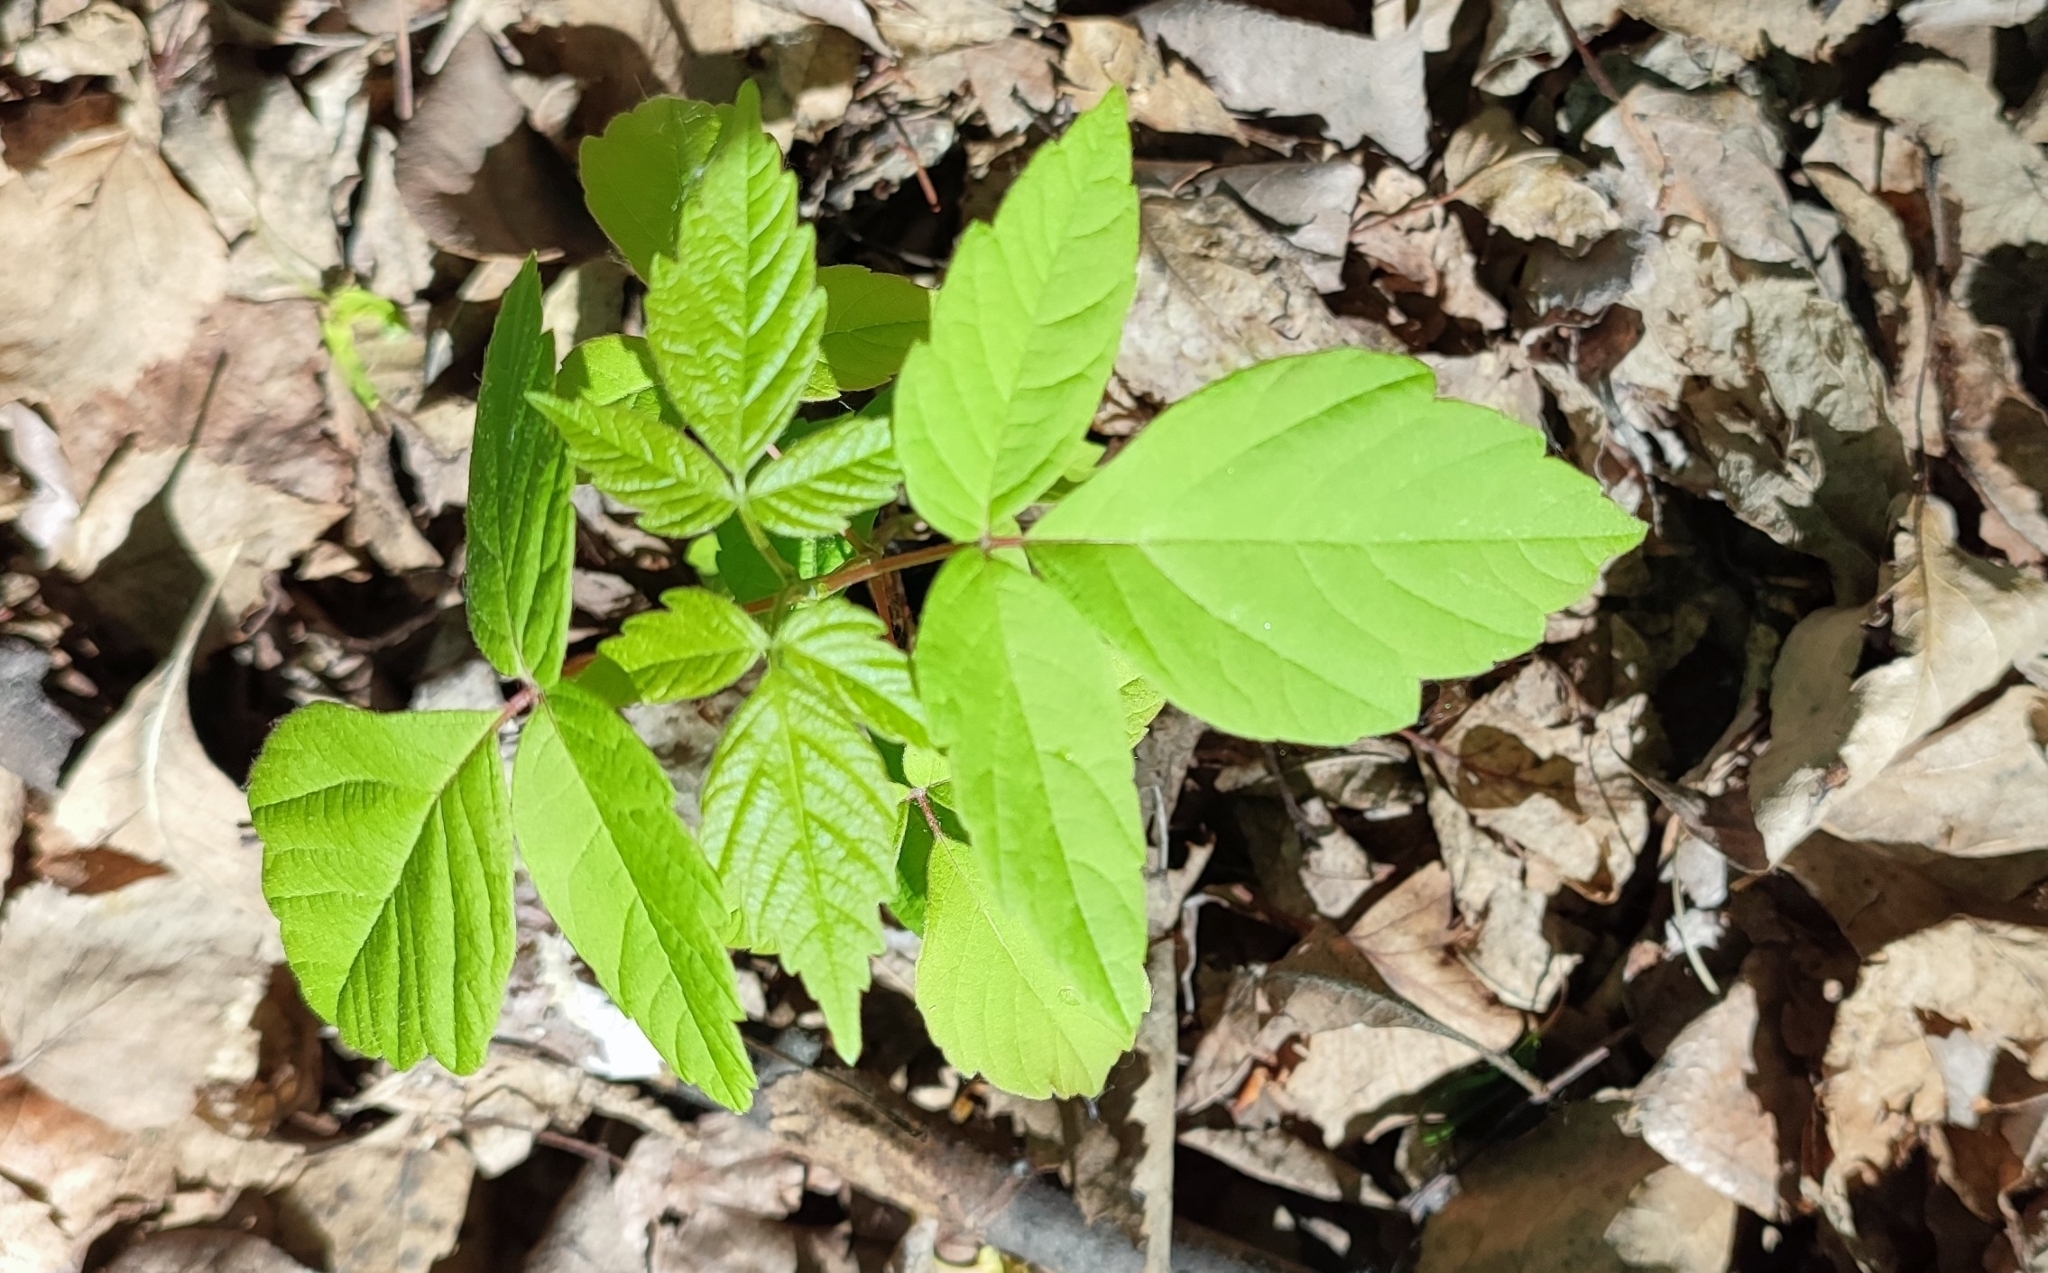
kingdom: Plantae
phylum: Tracheophyta
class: Magnoliopsida
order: Sapindales
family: Sapindaceae
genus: Acer
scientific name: Acer negundo
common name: Ashleaf maple
